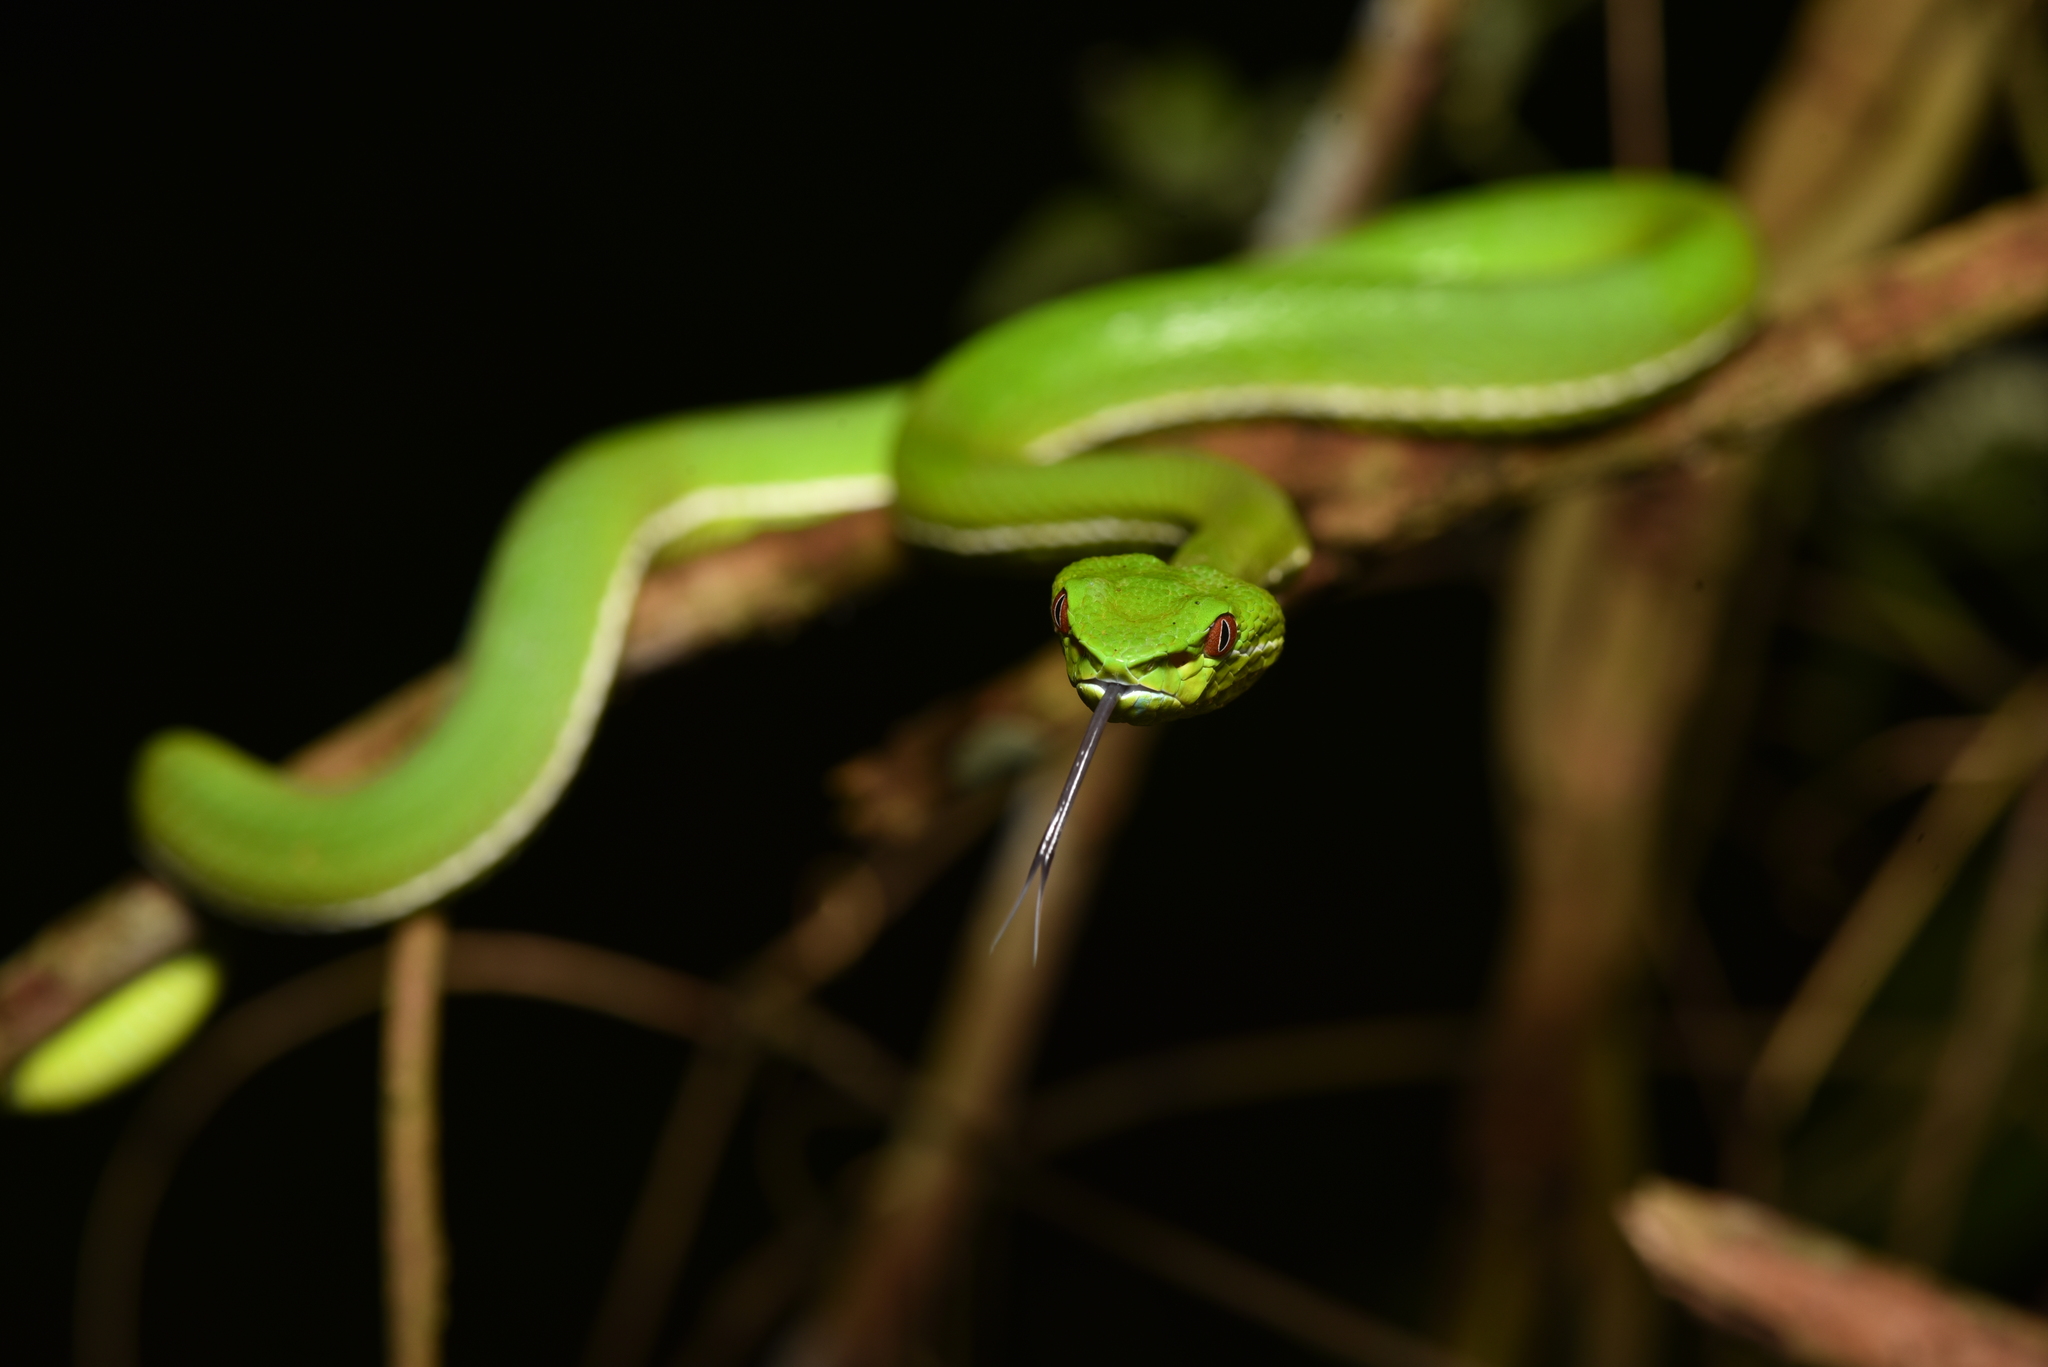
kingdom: Animalia
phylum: Chordata
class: Squamata
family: Viperidae
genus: Trimeresurus
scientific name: Trimeresurus stejnegeri
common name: Chen’s bamboo pit viper
